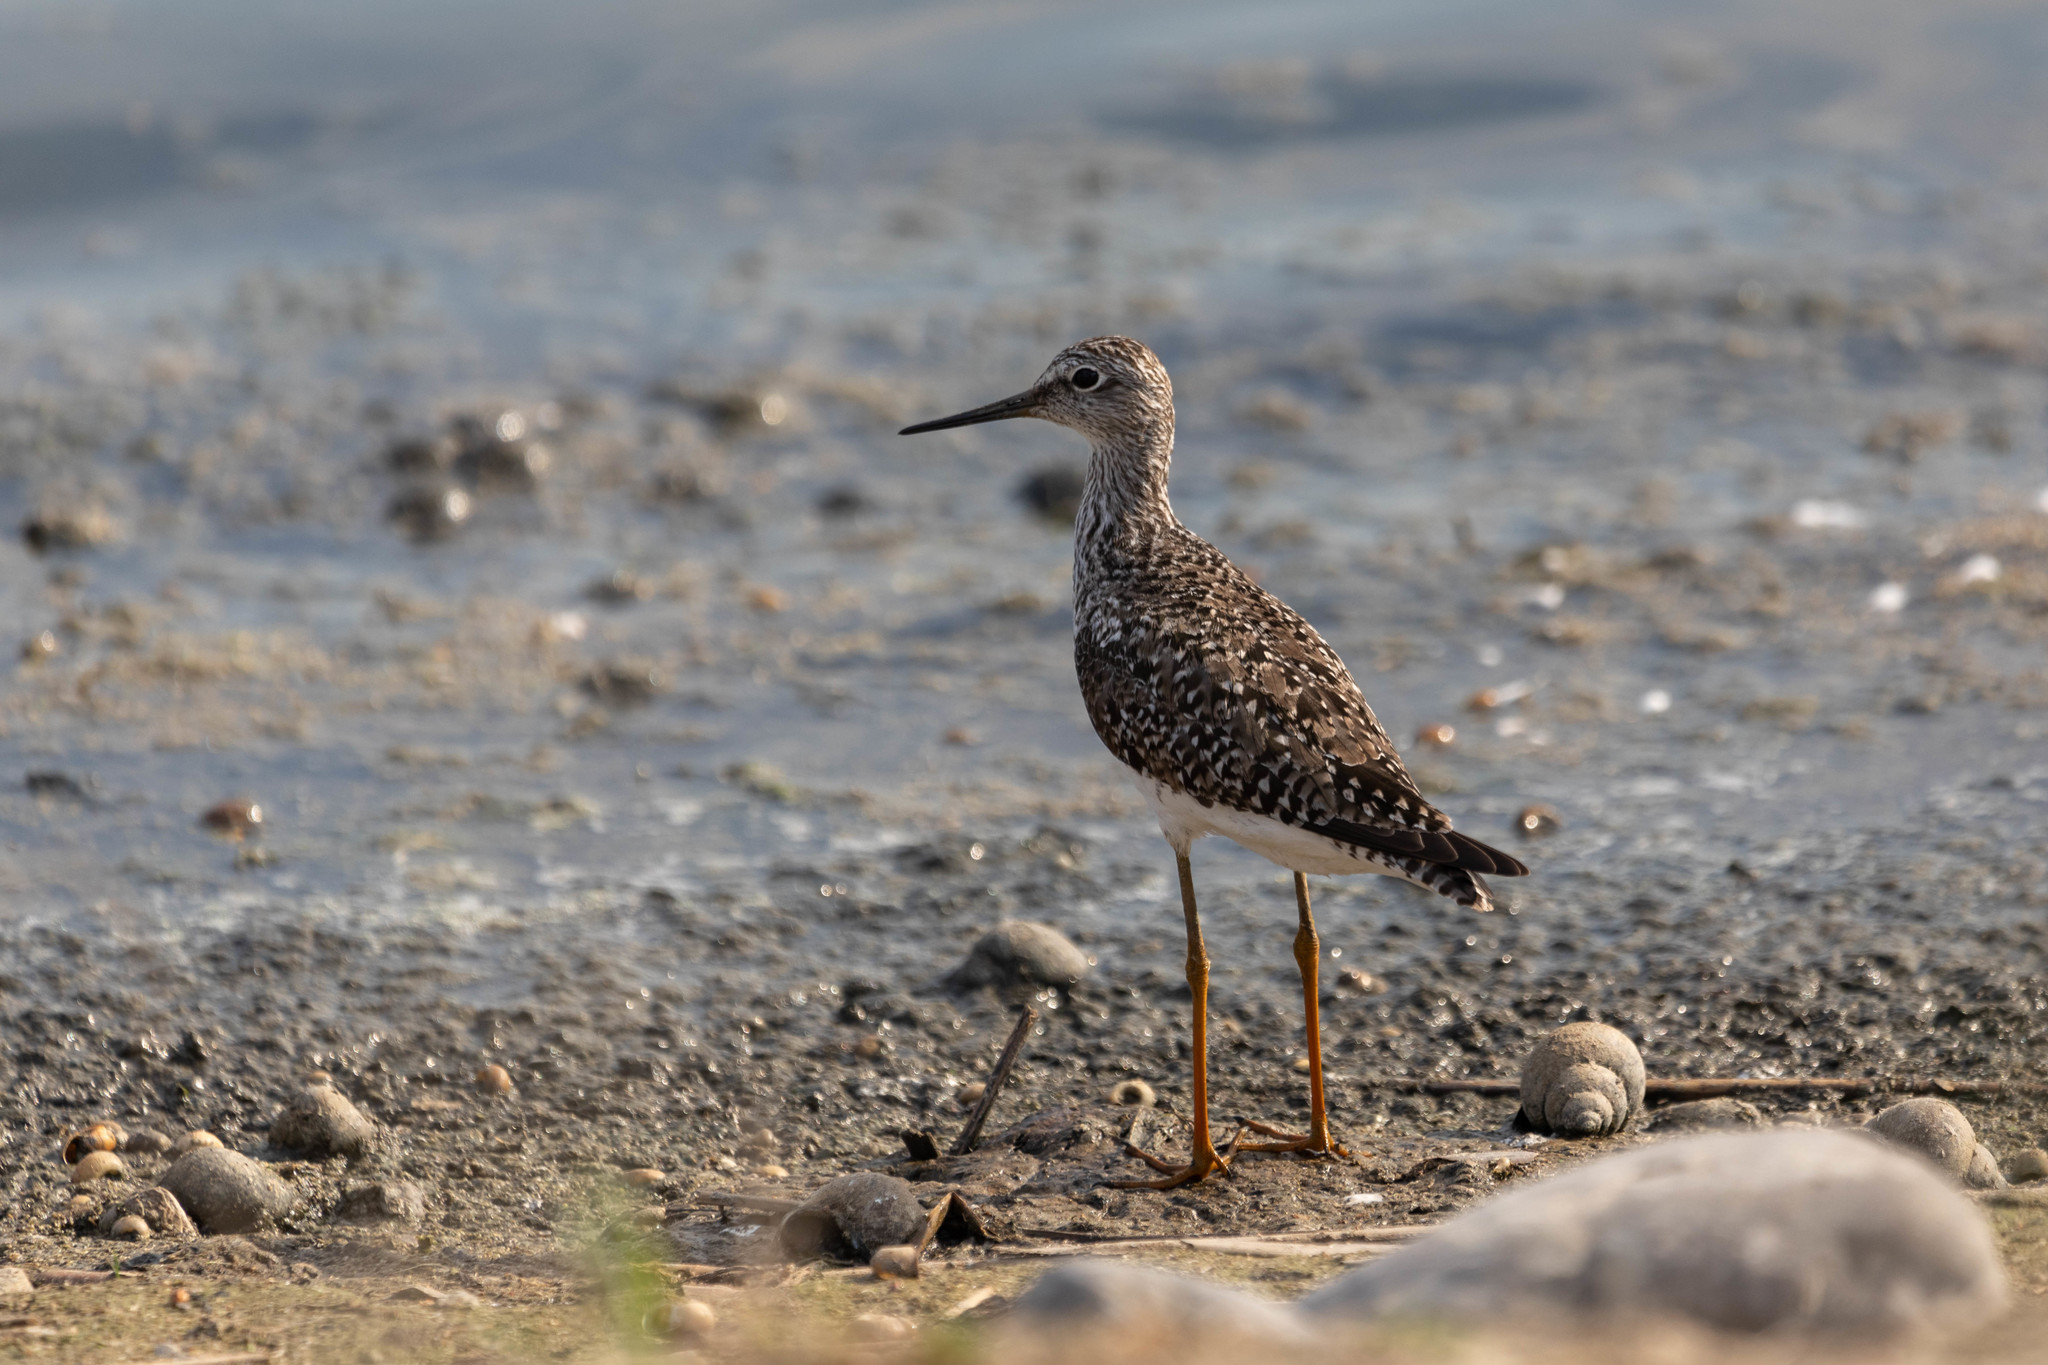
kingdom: Animalia
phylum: Chordata
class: Aves
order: Charadriiformes
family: Scolopacidae
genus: Tringa
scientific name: Tringa flavipes
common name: Lesser yellowlegs
